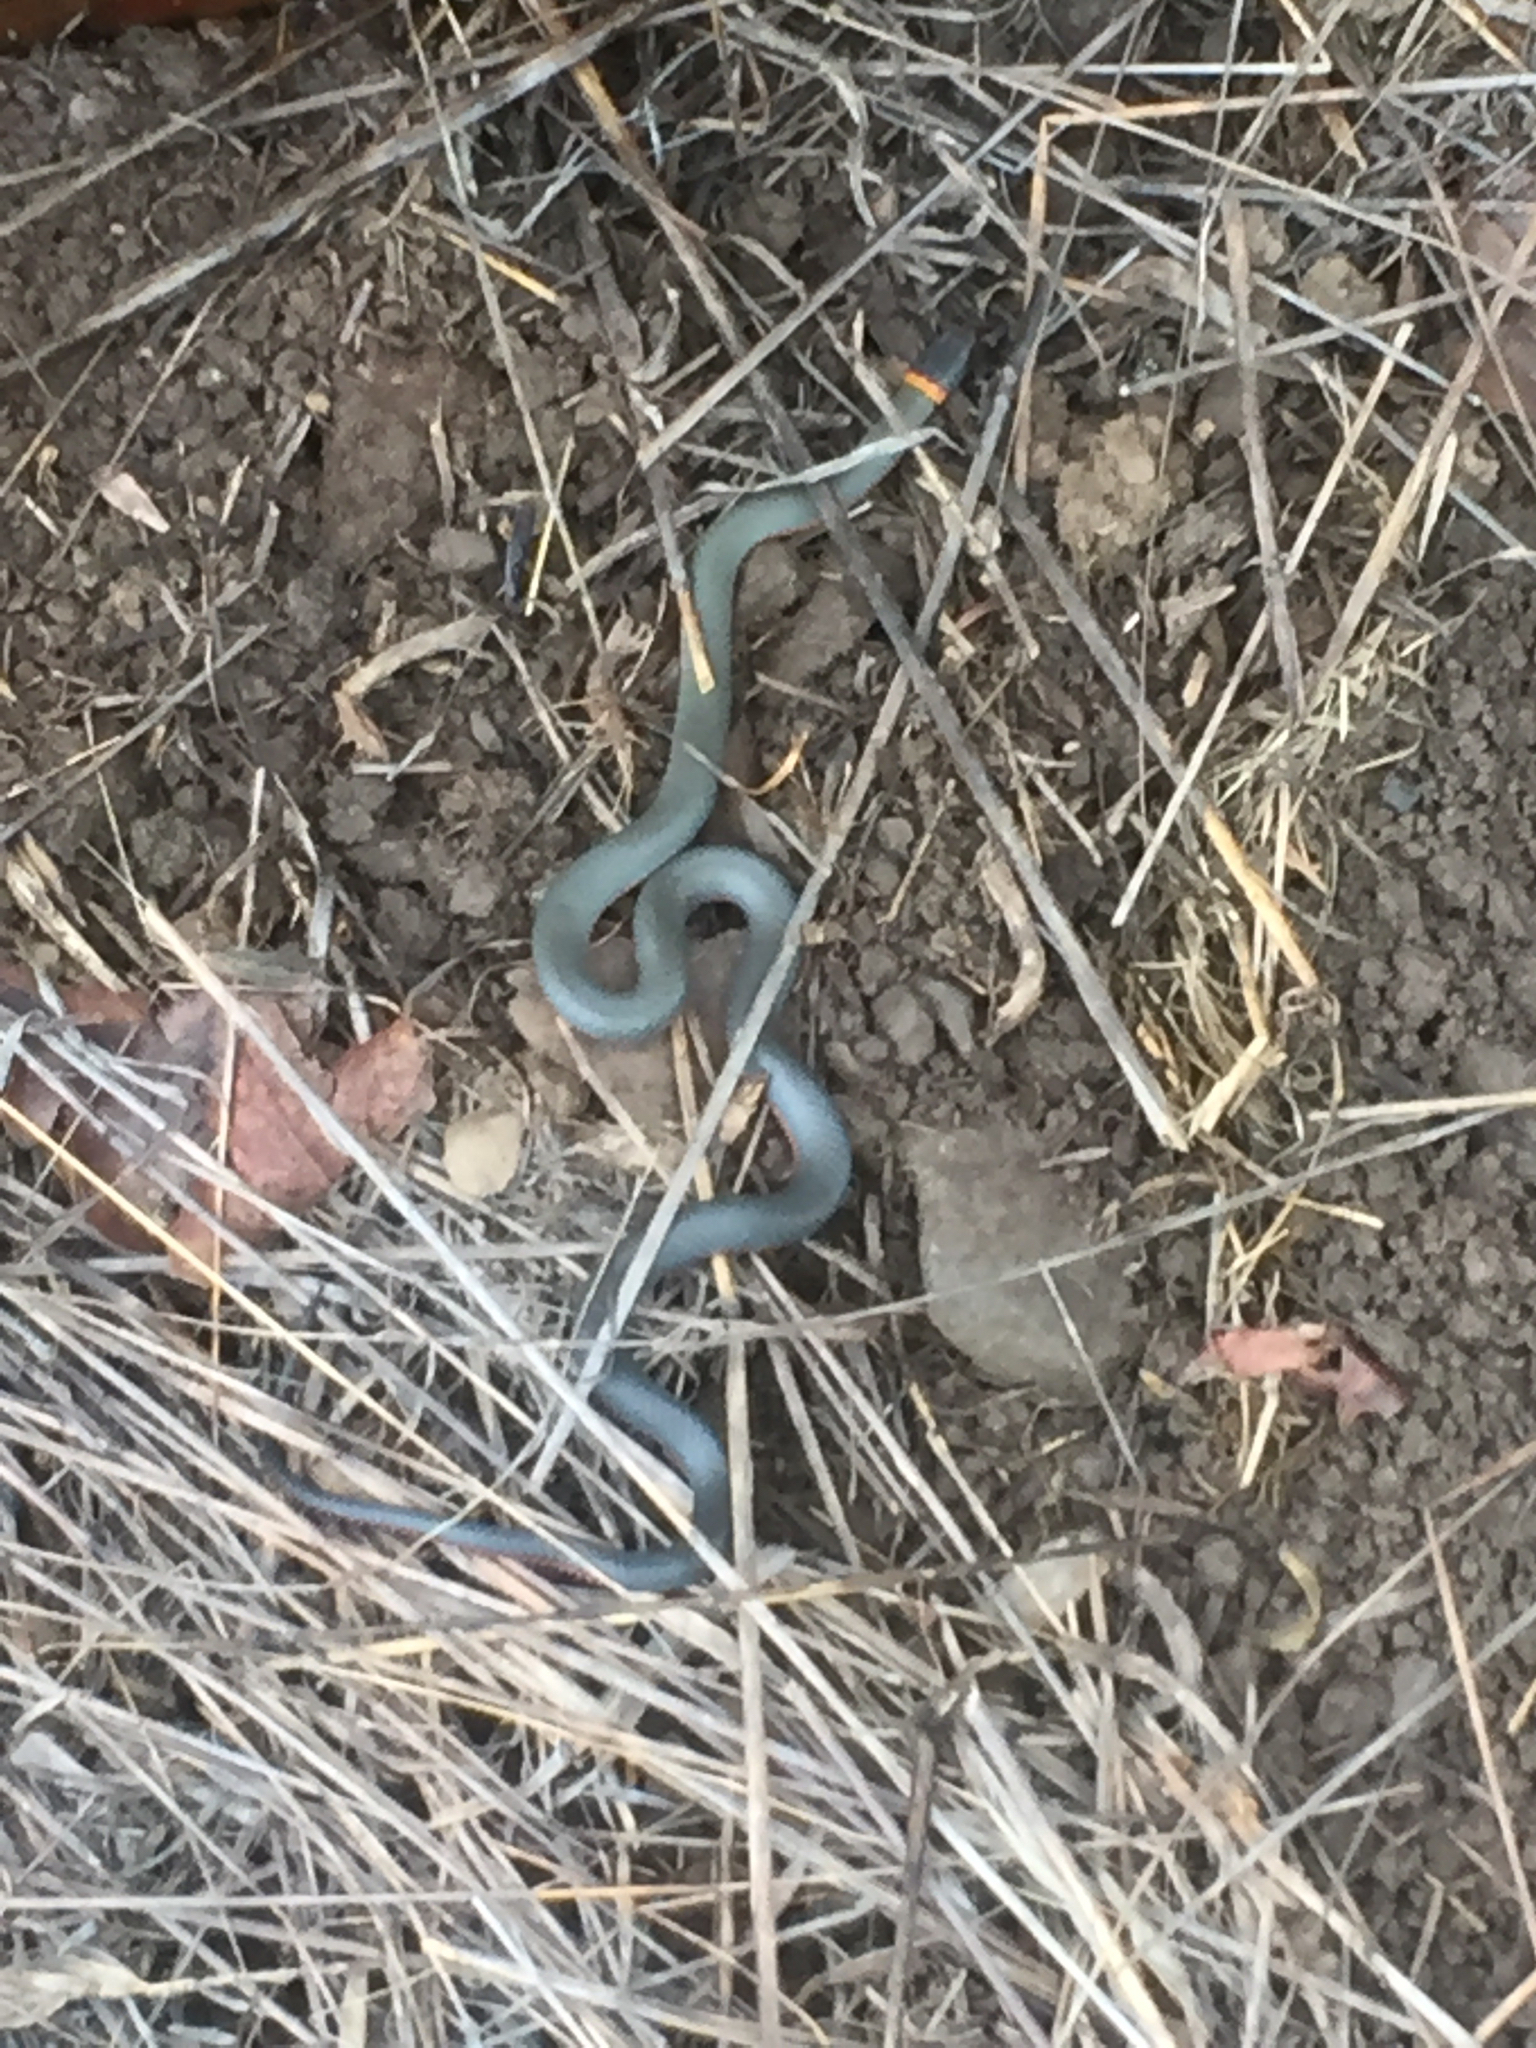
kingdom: Animalia
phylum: Chordata
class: Squamata
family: Colubridae
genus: Diadophis
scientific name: Diadophis punctatus
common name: Ringneck snake
